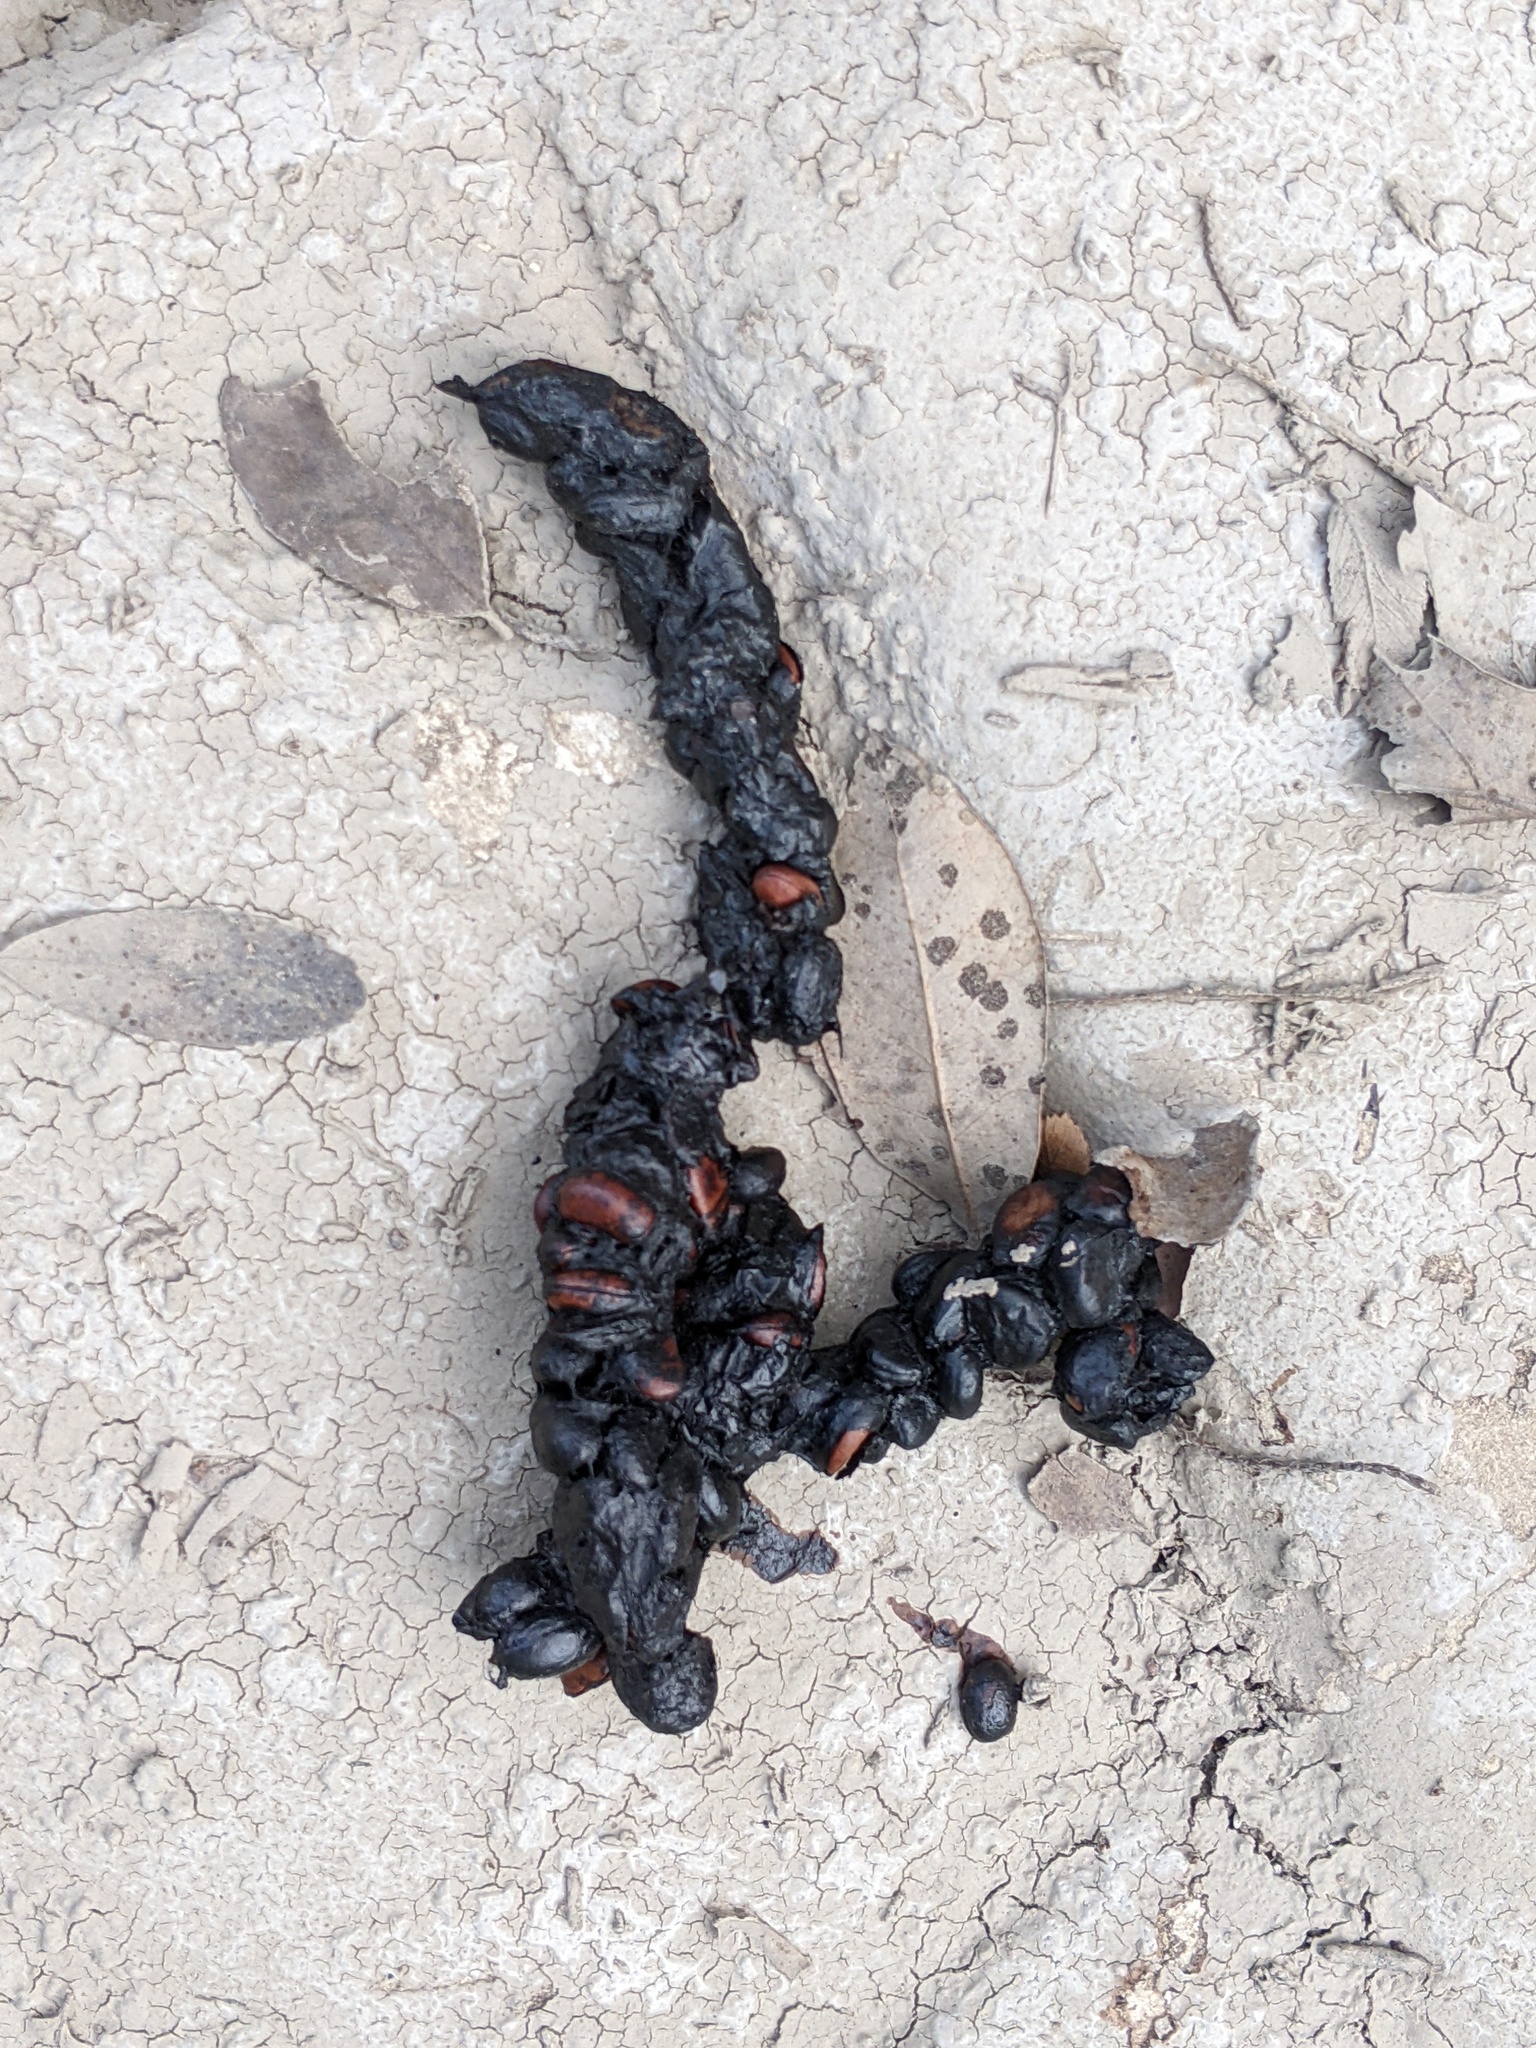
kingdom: Plantae
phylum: Tracheophyta
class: Magnoliopsida
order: Ericales
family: Ebenaceae
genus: Diospyros
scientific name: Diospyros texana
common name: Texas persimmon
